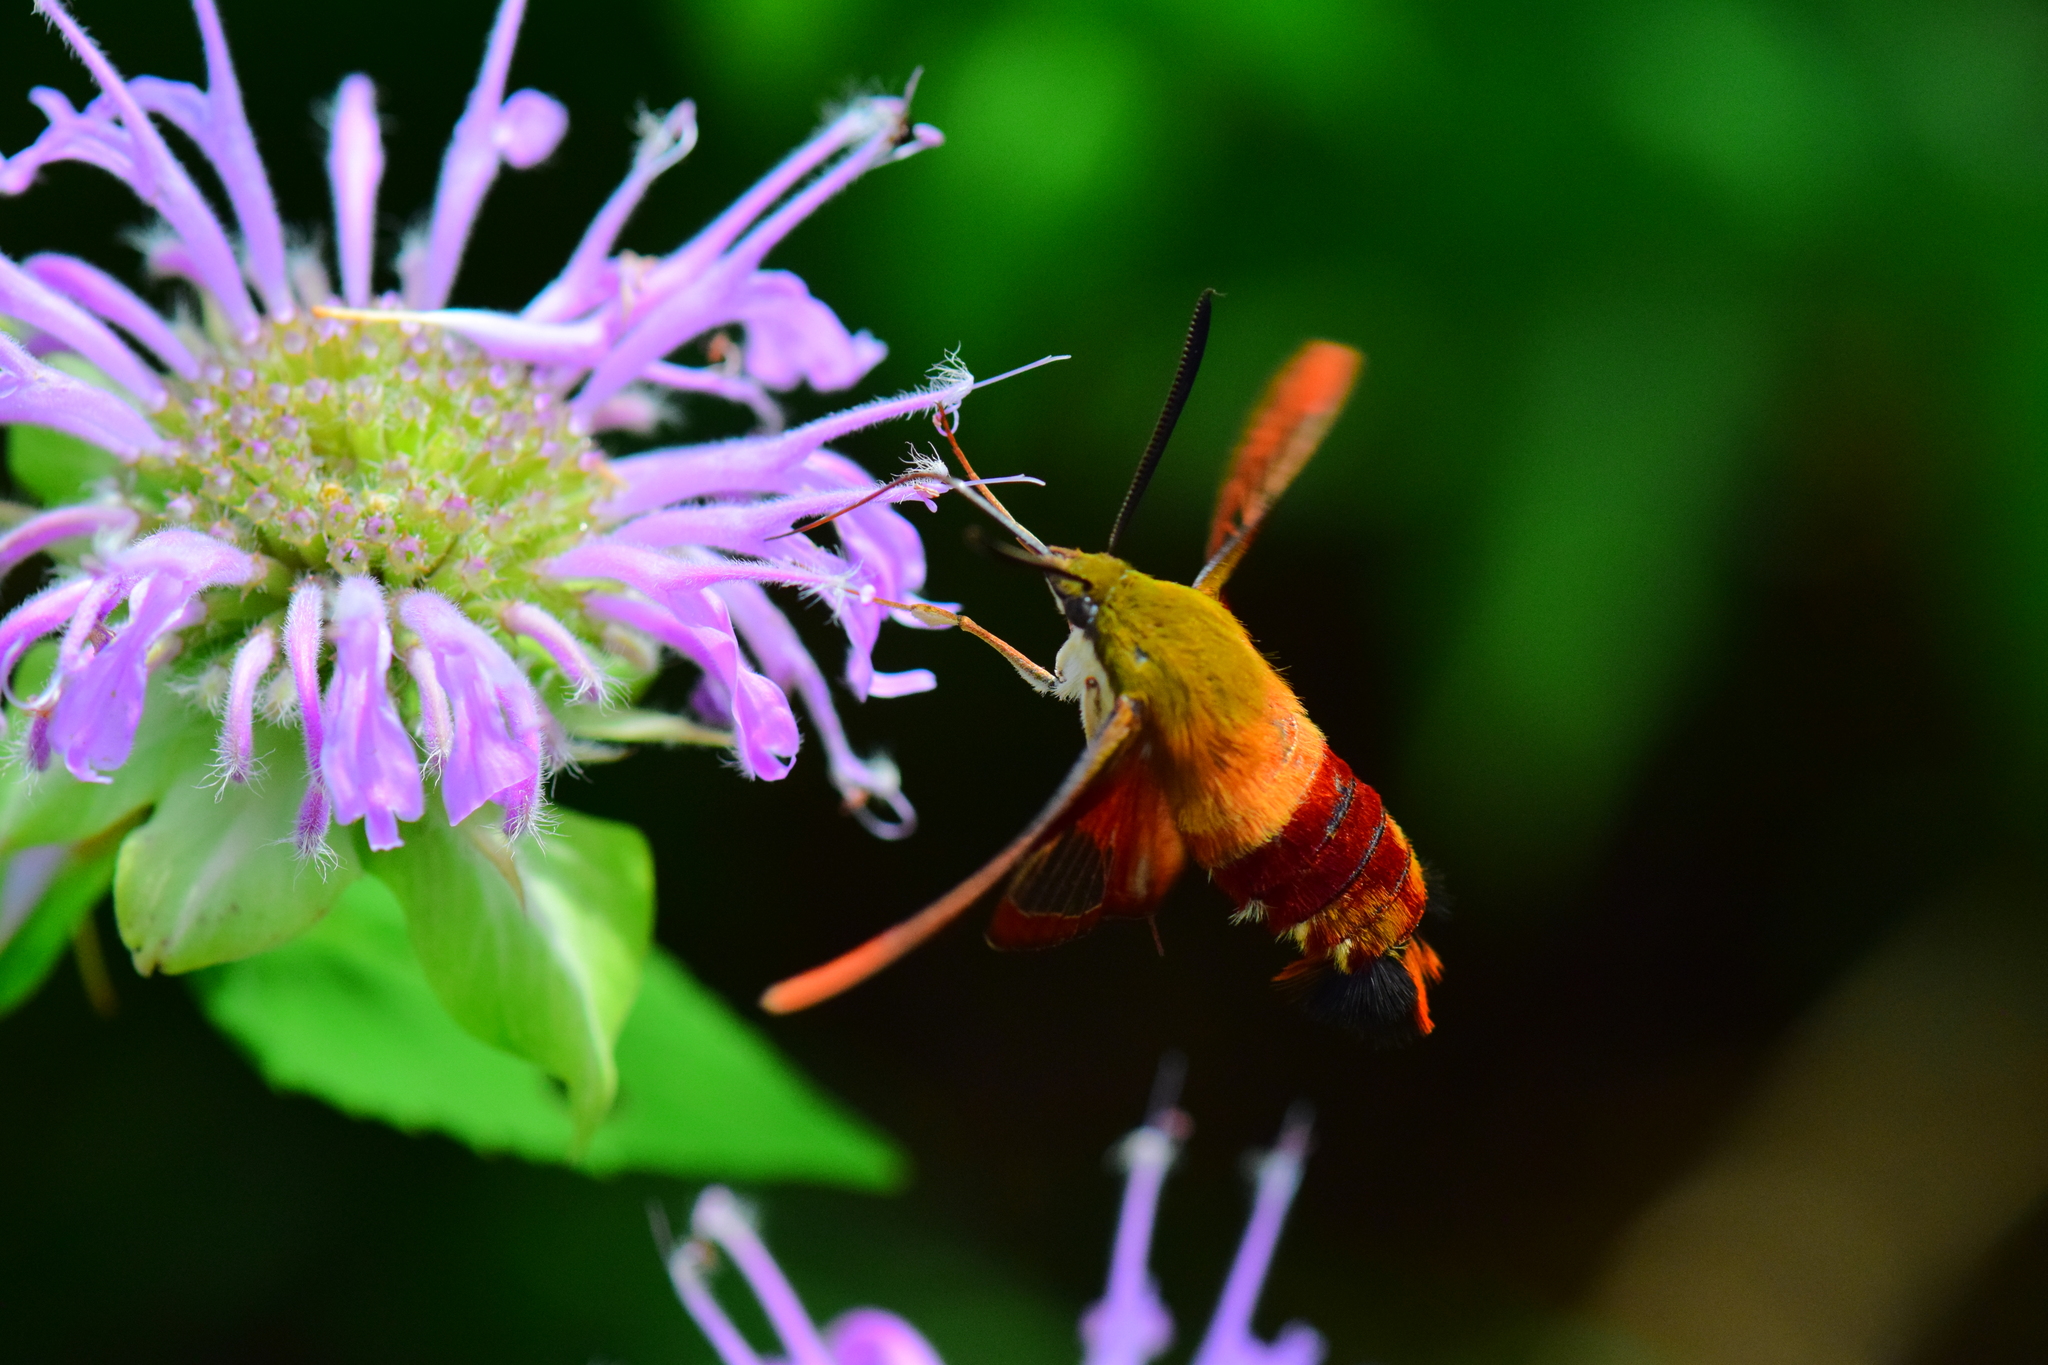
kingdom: Animalia
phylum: Arthropoda
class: Insecta
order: Lepidoptera
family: Sphingidae
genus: Hemaris
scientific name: Hemaris thysbe
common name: Common clear-wing
